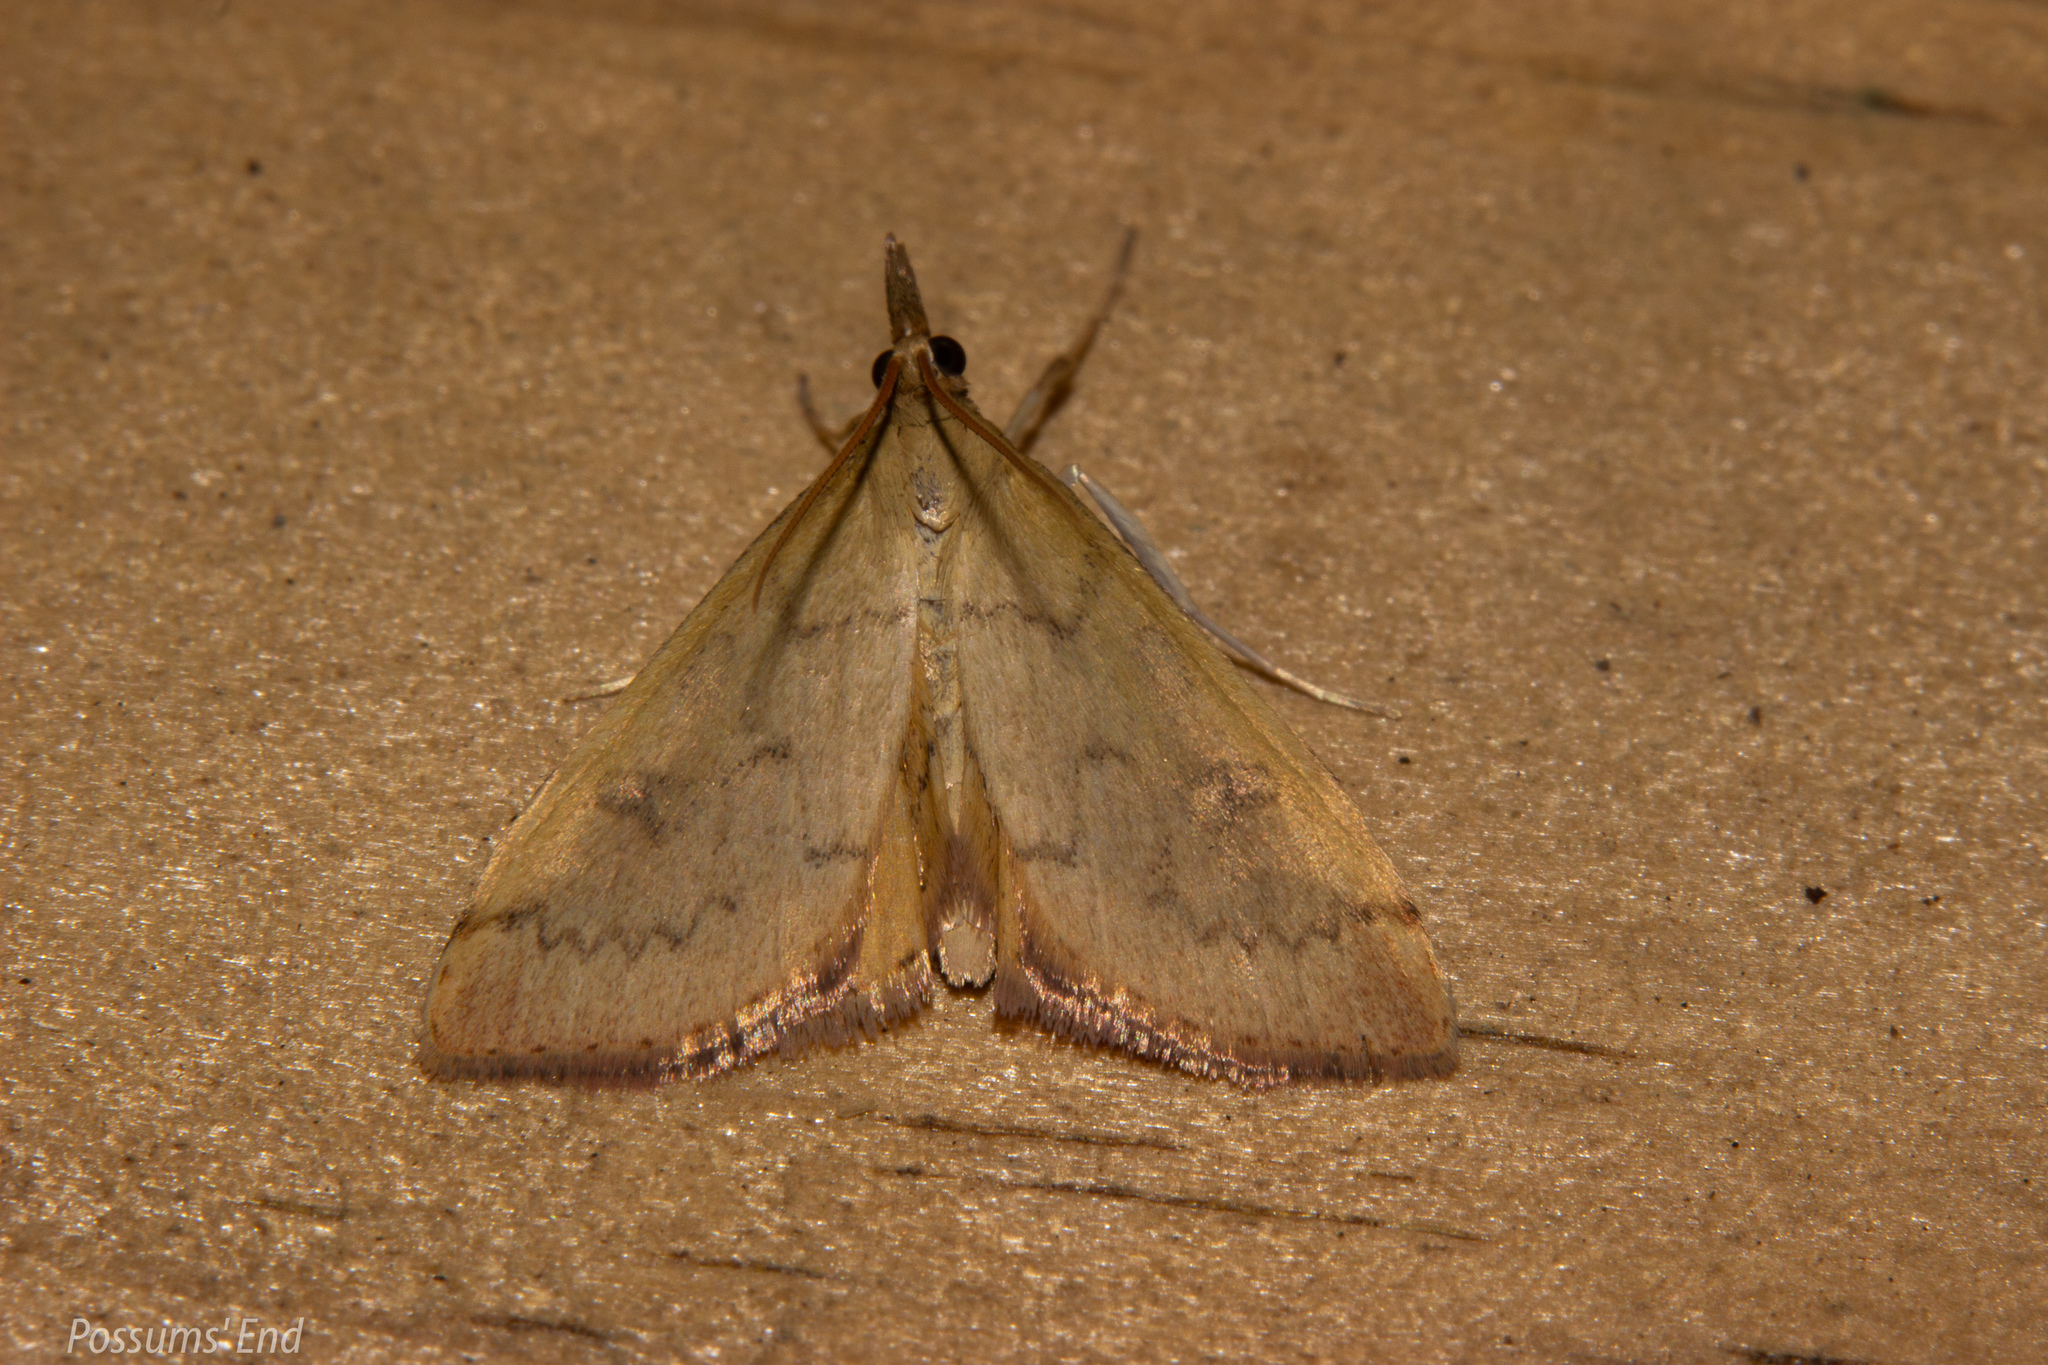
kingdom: Animalia
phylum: Arthropoda
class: Insecta
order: Lepidoptera
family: Crambidae
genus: Udea
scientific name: Udea Mnesictena flavidalis
